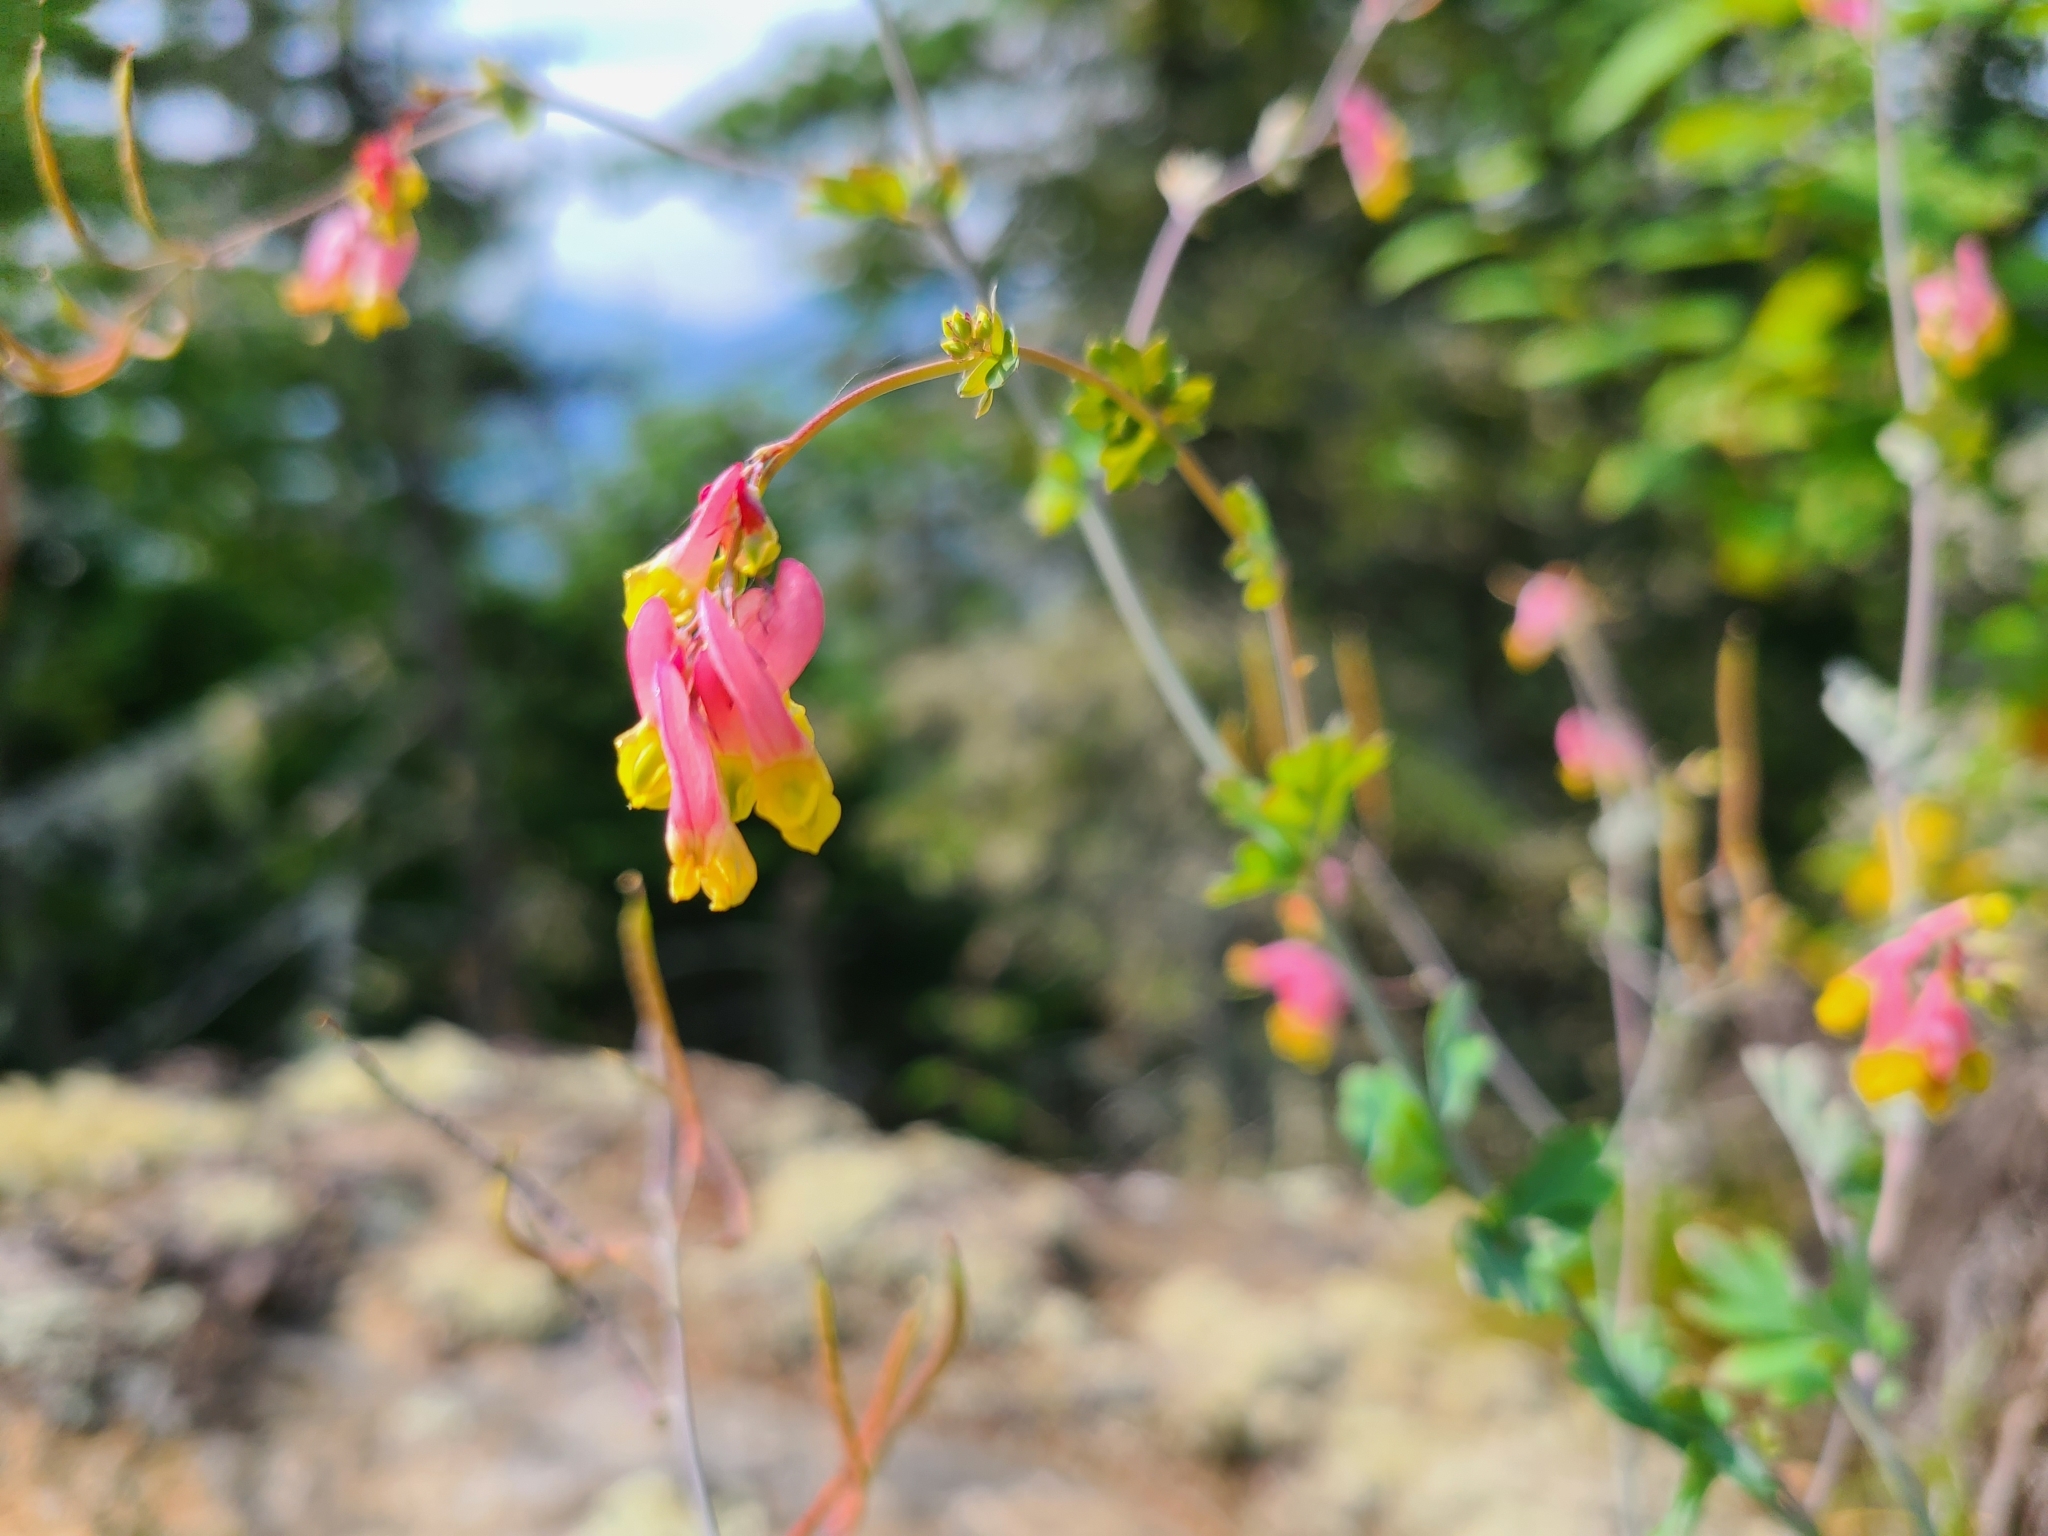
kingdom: Plantae
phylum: Tracheophyta
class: Magnoliopsida
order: Ranunculales
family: Papaveraceae
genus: Capnoides
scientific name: Capnoides sempervirens
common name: Rock harlequin
